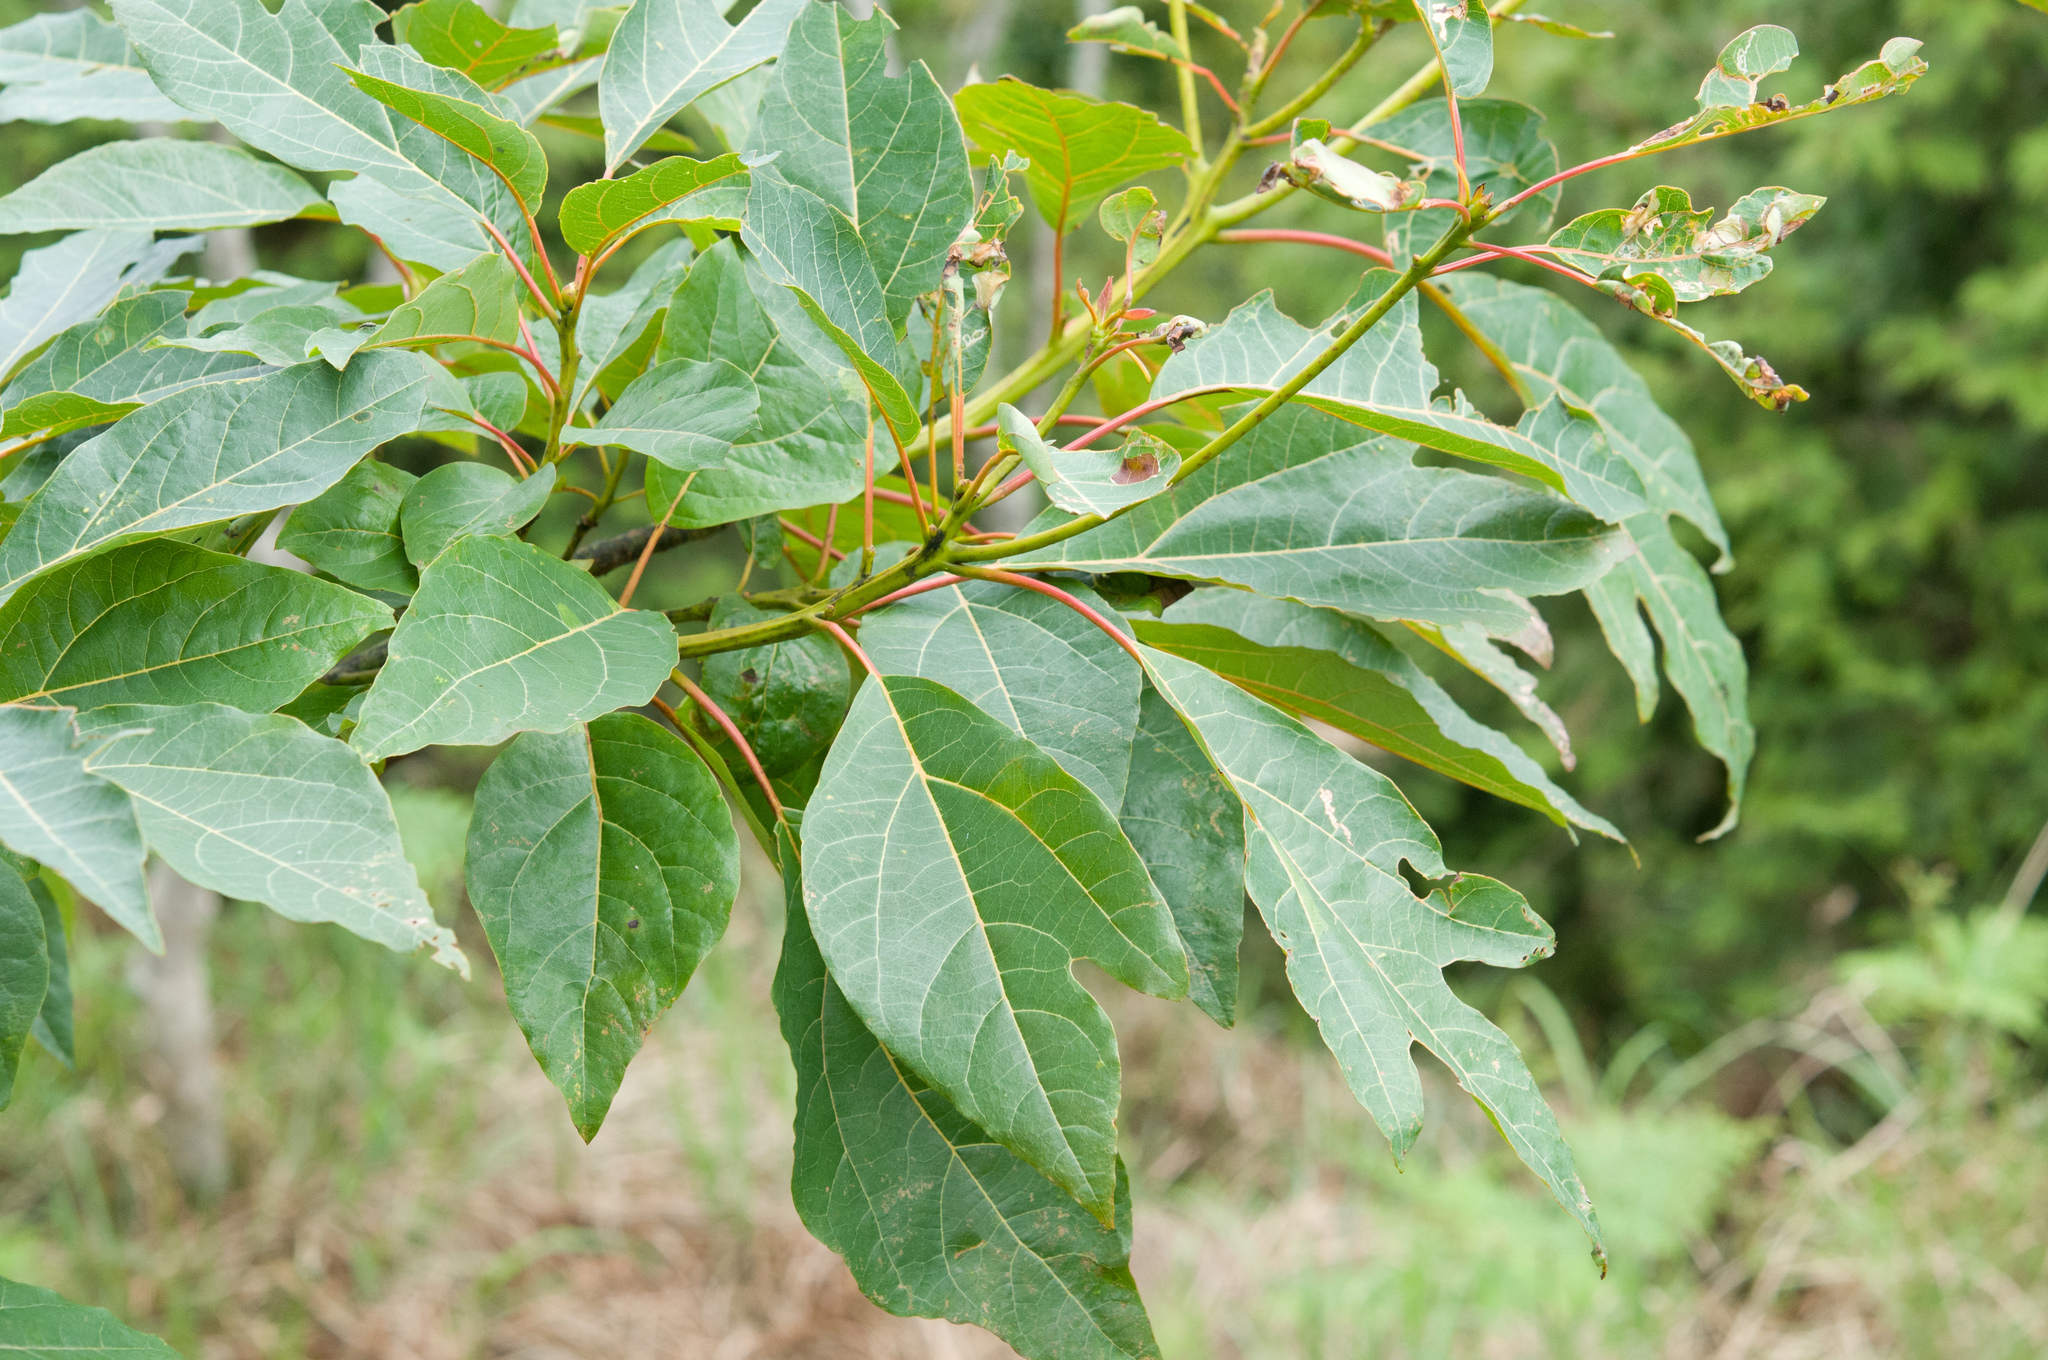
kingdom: Plantae
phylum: Tracheophyta
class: Magnoliopsida
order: Laurales
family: Lauraceae
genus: Sassafras
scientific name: Sassafras randaiense
